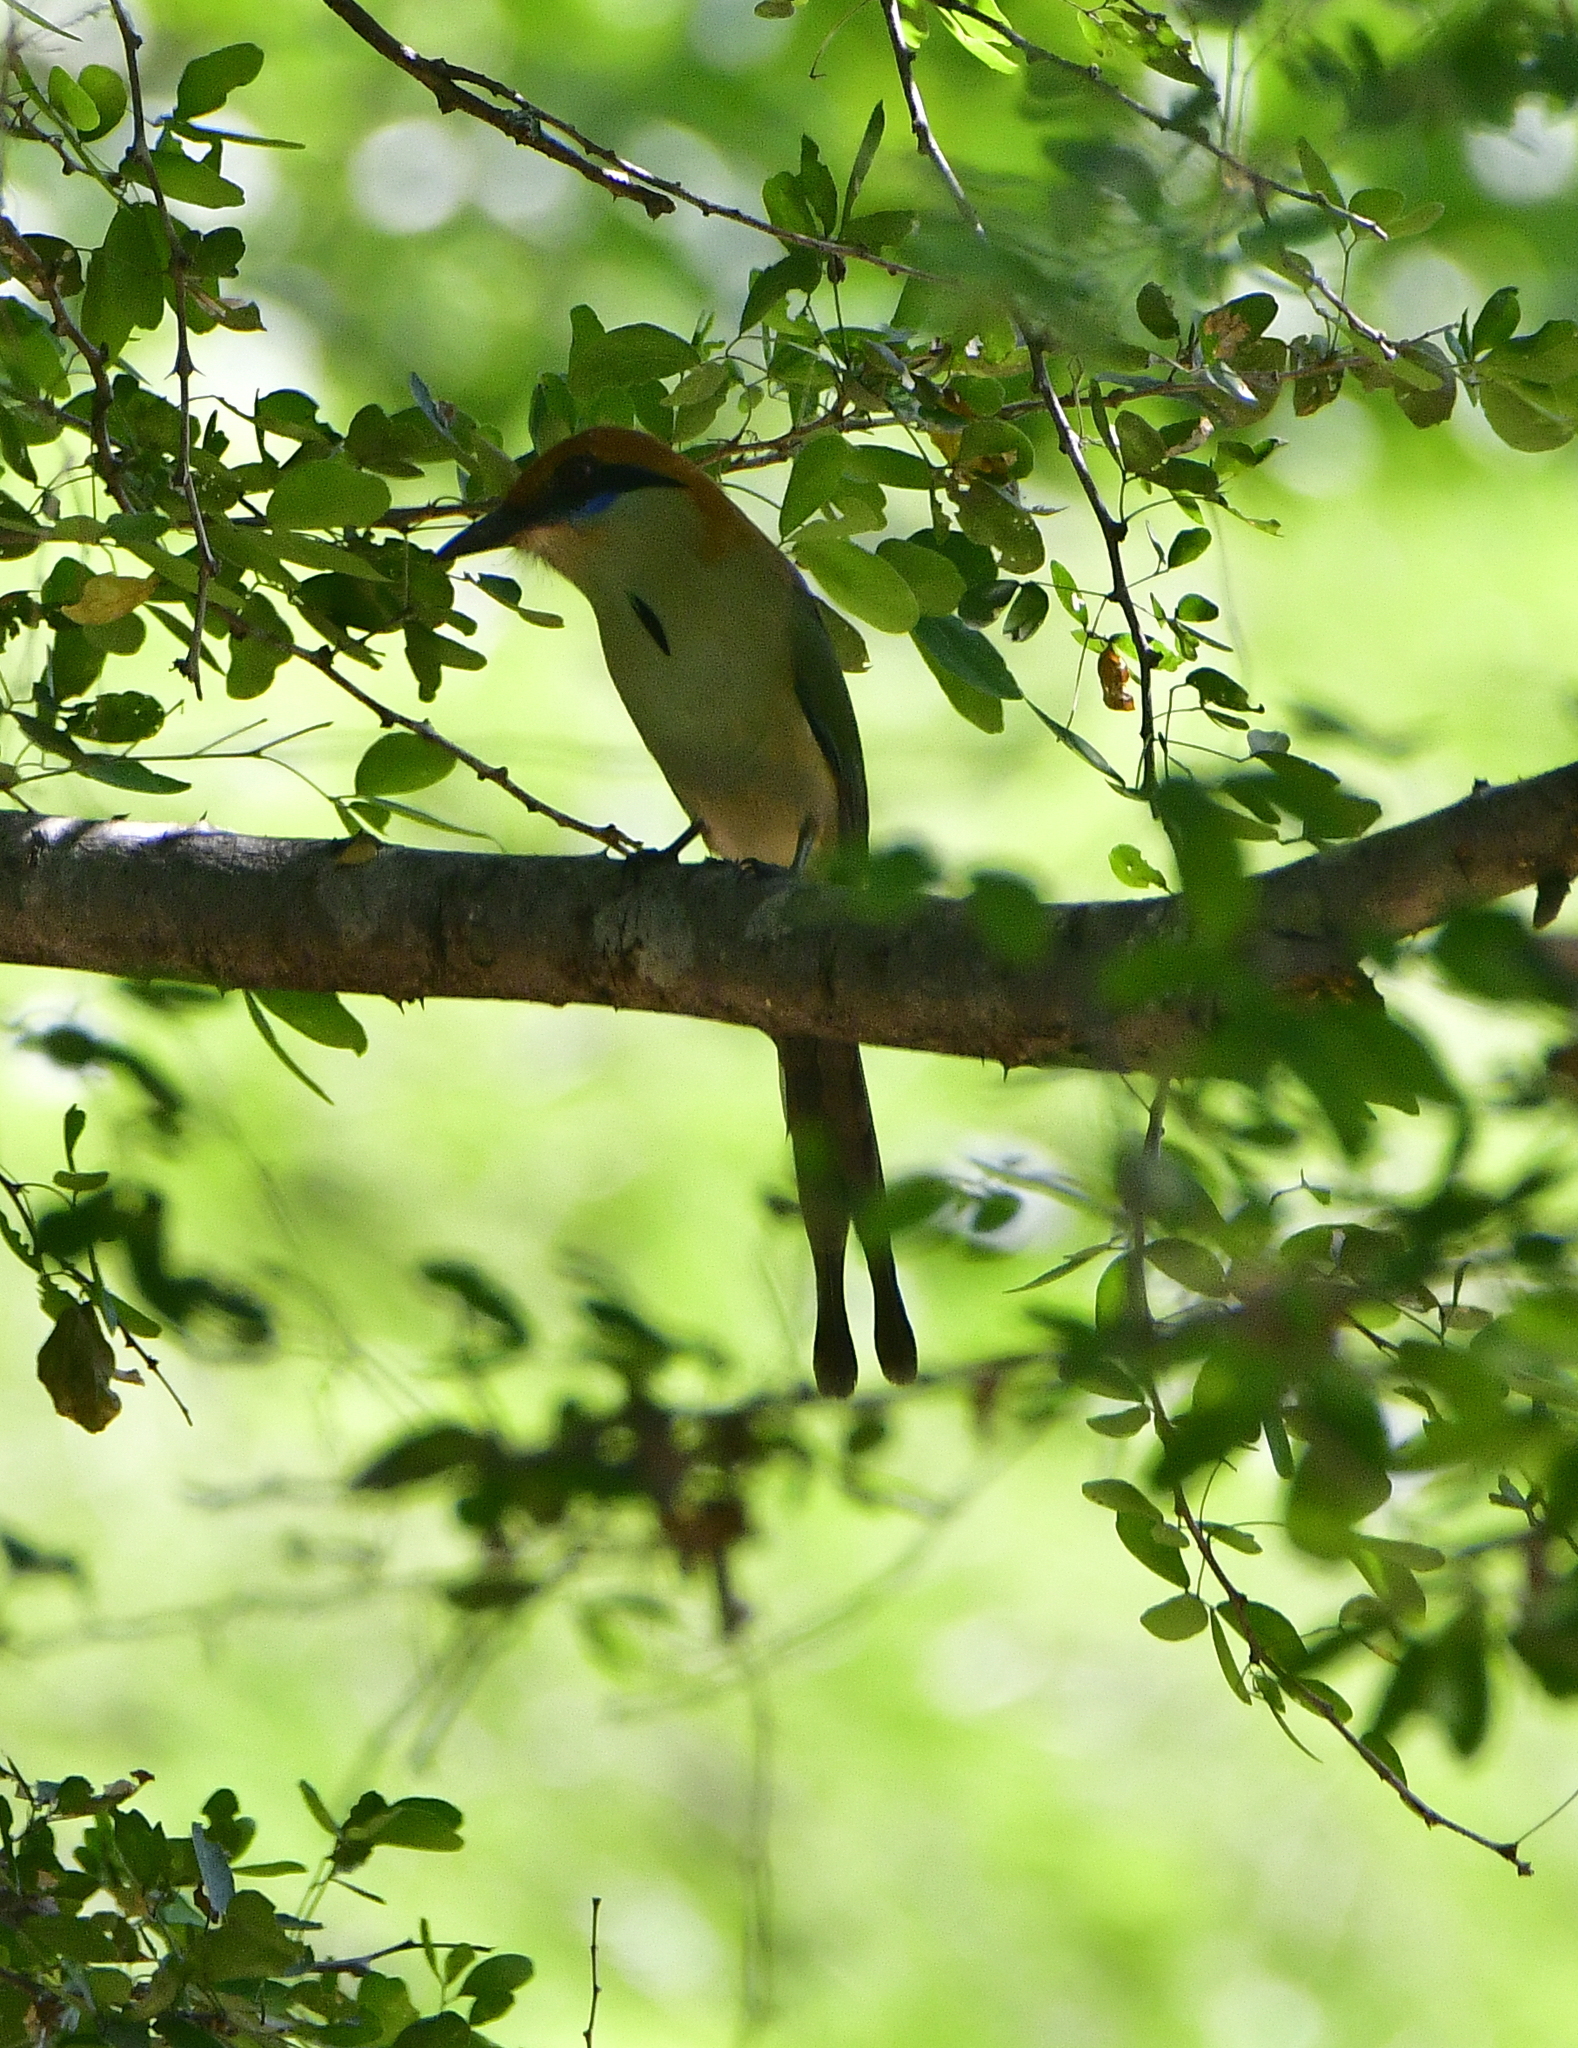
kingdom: Animalia
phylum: Chordata
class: Aves
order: Coraciiformes
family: Momotidae
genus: Momotus
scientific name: Momotus mexicanus
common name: Russet-crowned motmot
